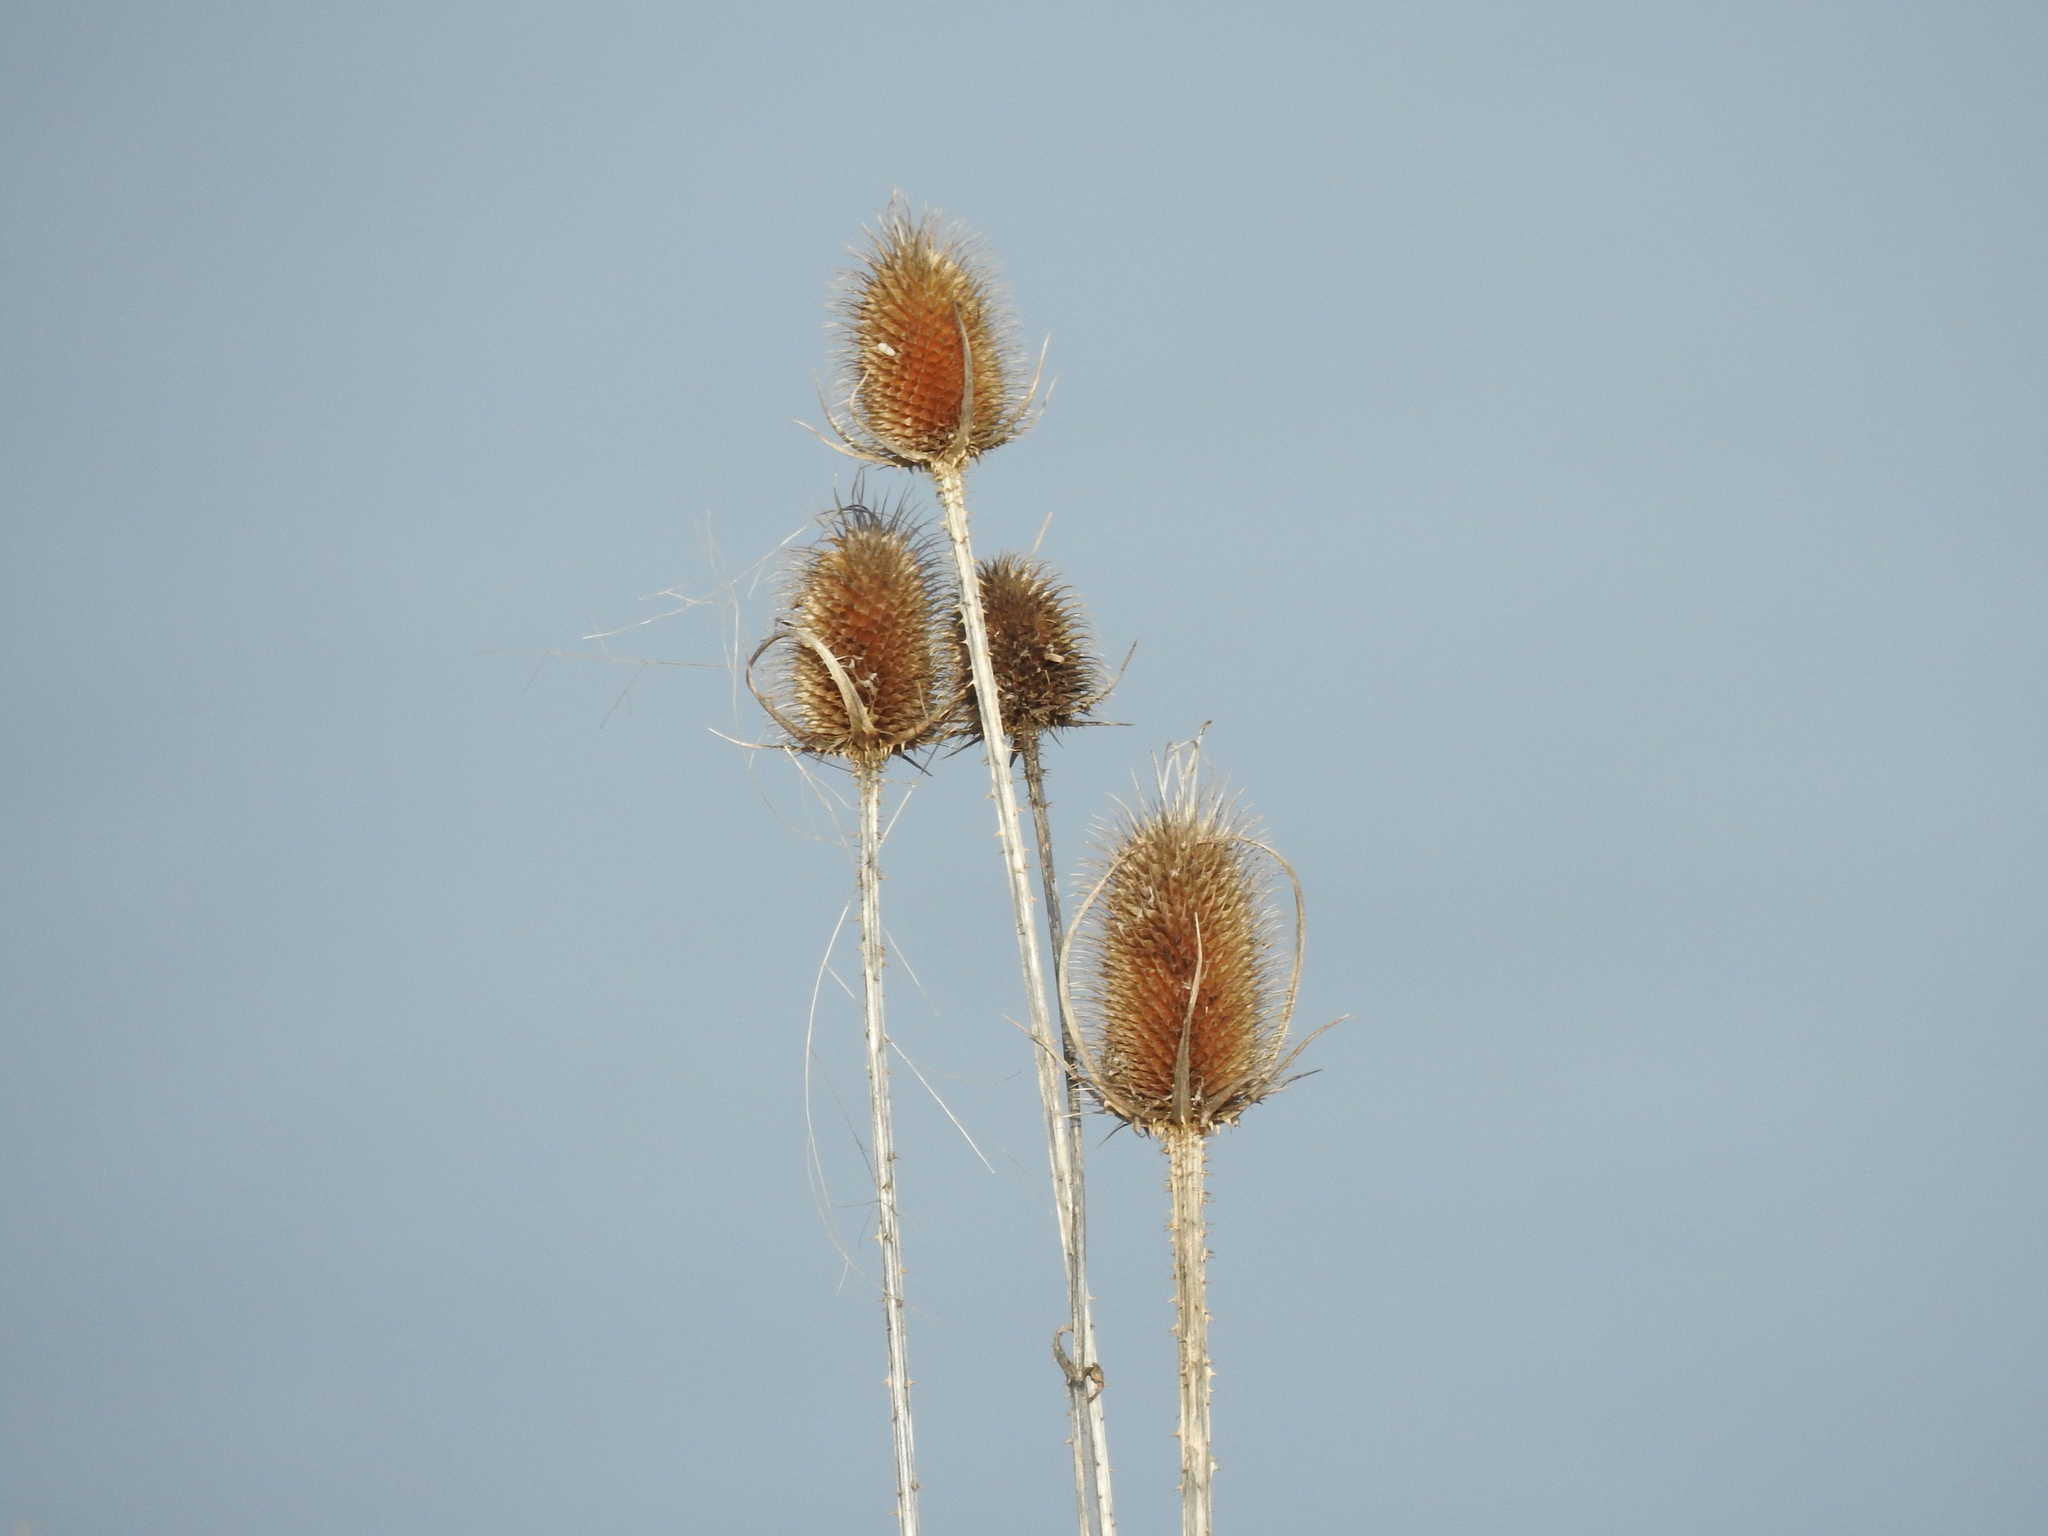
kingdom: Plantae
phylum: Tracheophyta
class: Magnoliopsida
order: Dipsacales
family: Caprifoliaceae
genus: Dipsacus
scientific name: Dipsacus laciniatus
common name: Cut-leaved teasel
